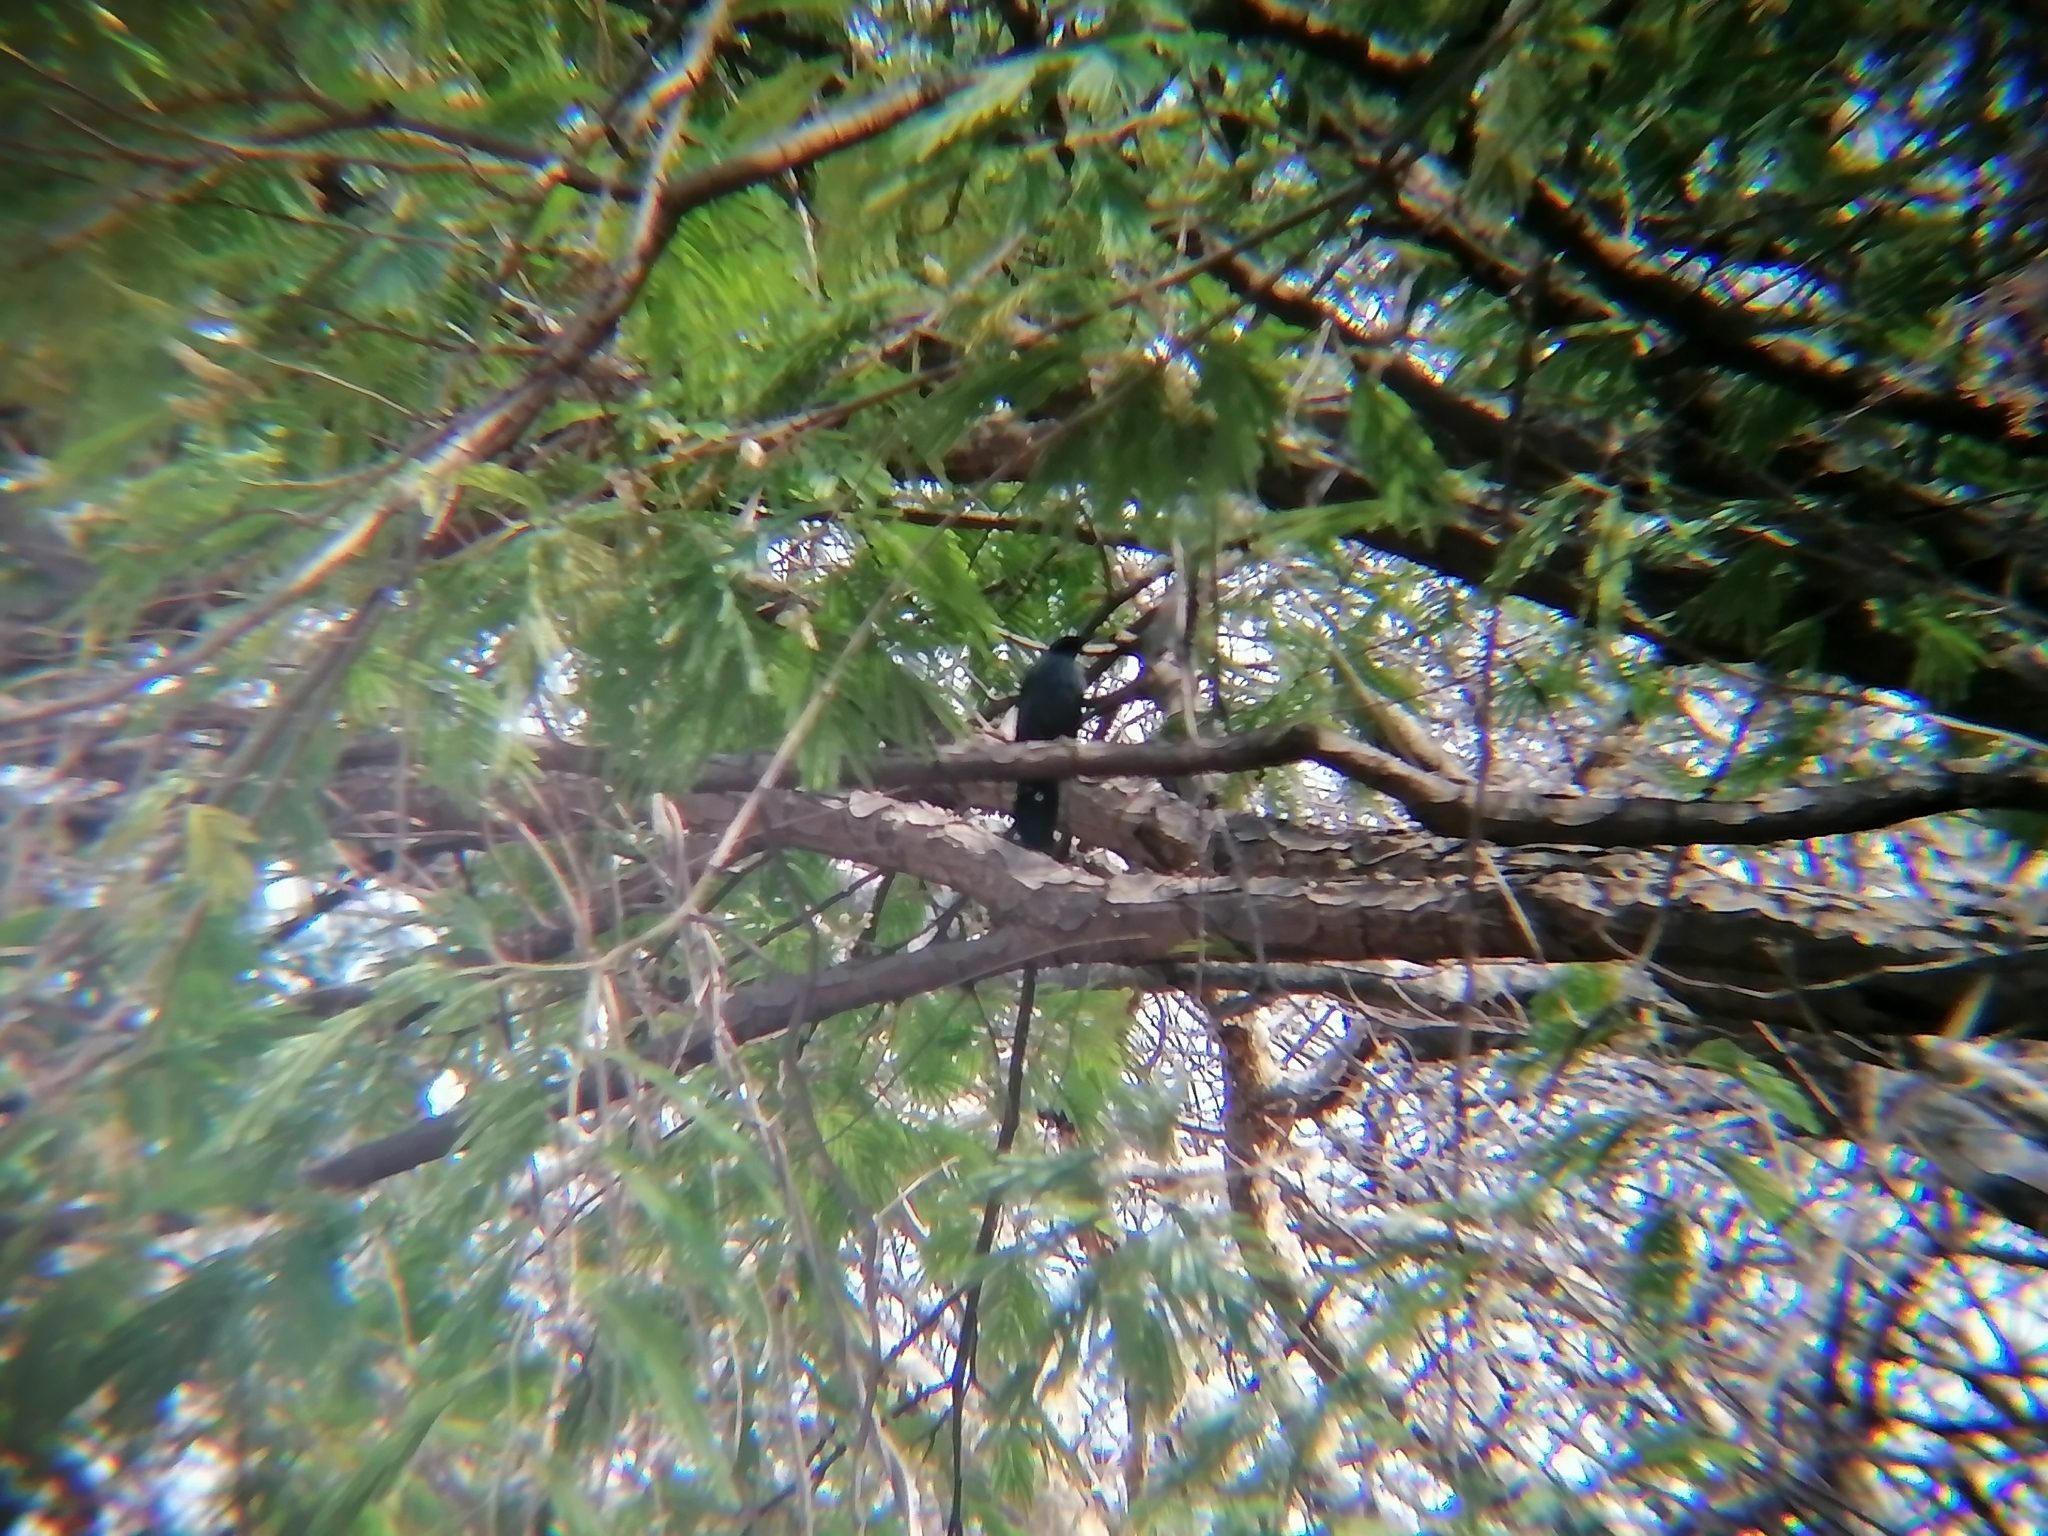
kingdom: Animalia
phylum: Chordata
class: Aves
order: Passeriformes
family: Mimidae
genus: Melanotis
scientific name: Melanotis caerulescens
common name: Blue mockingbird
